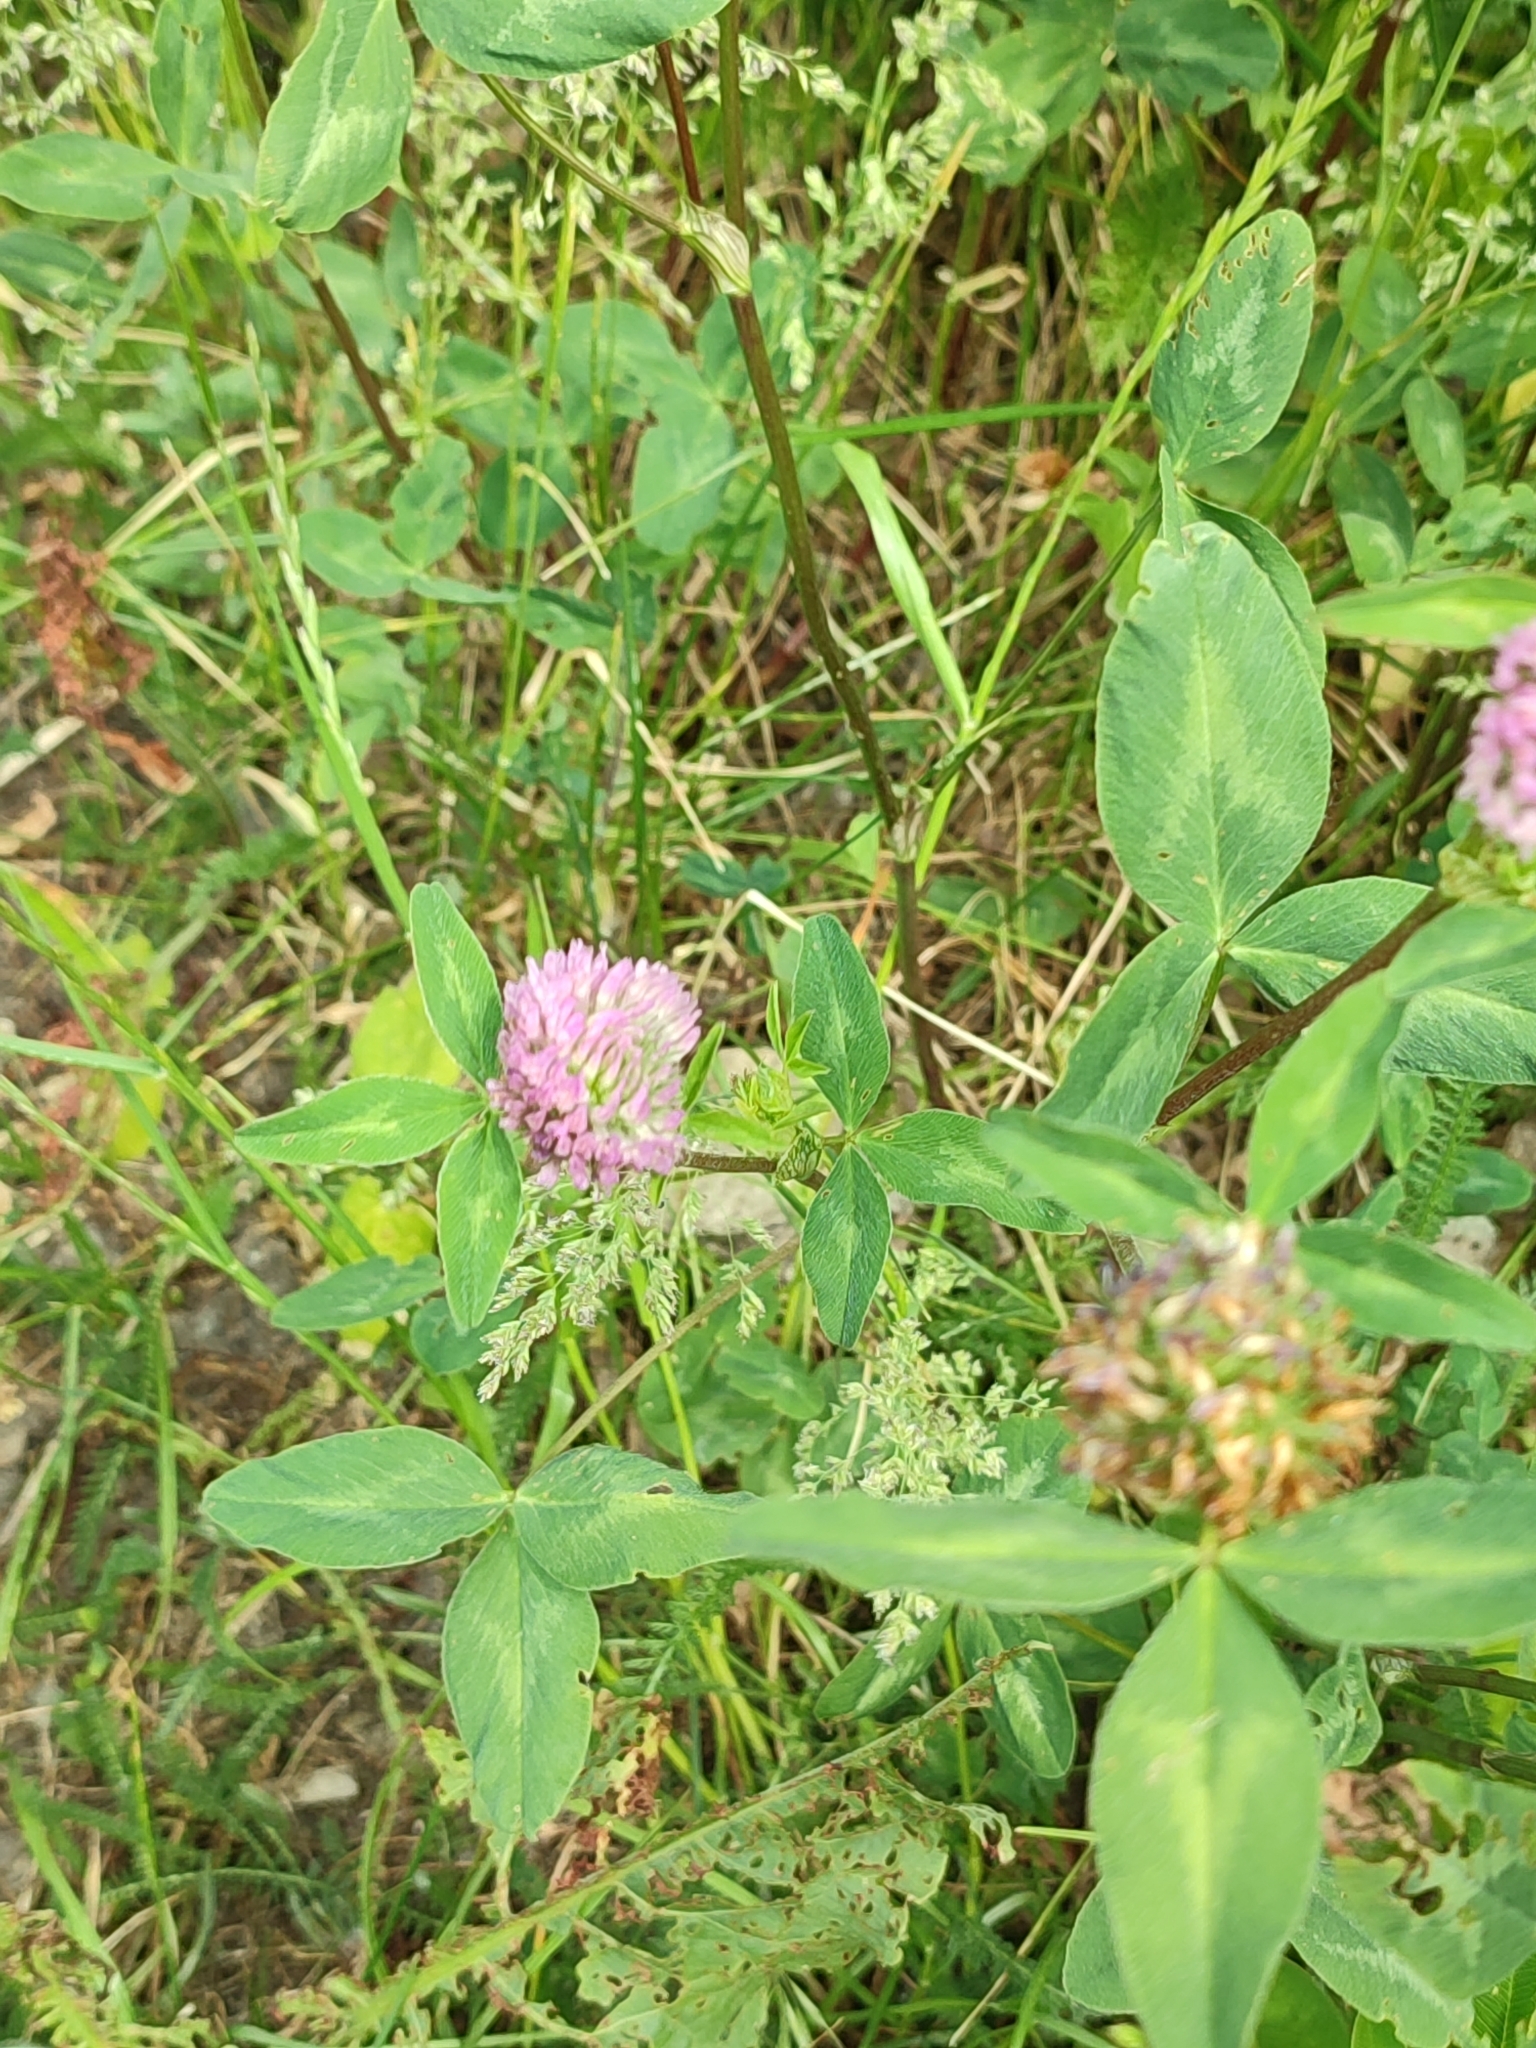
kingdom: Plantae
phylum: Tracheophyta
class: Magnoliopsida
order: Fabales
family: Fabaceae
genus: Trifolium
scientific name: Trifolium pratense
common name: Red clover
